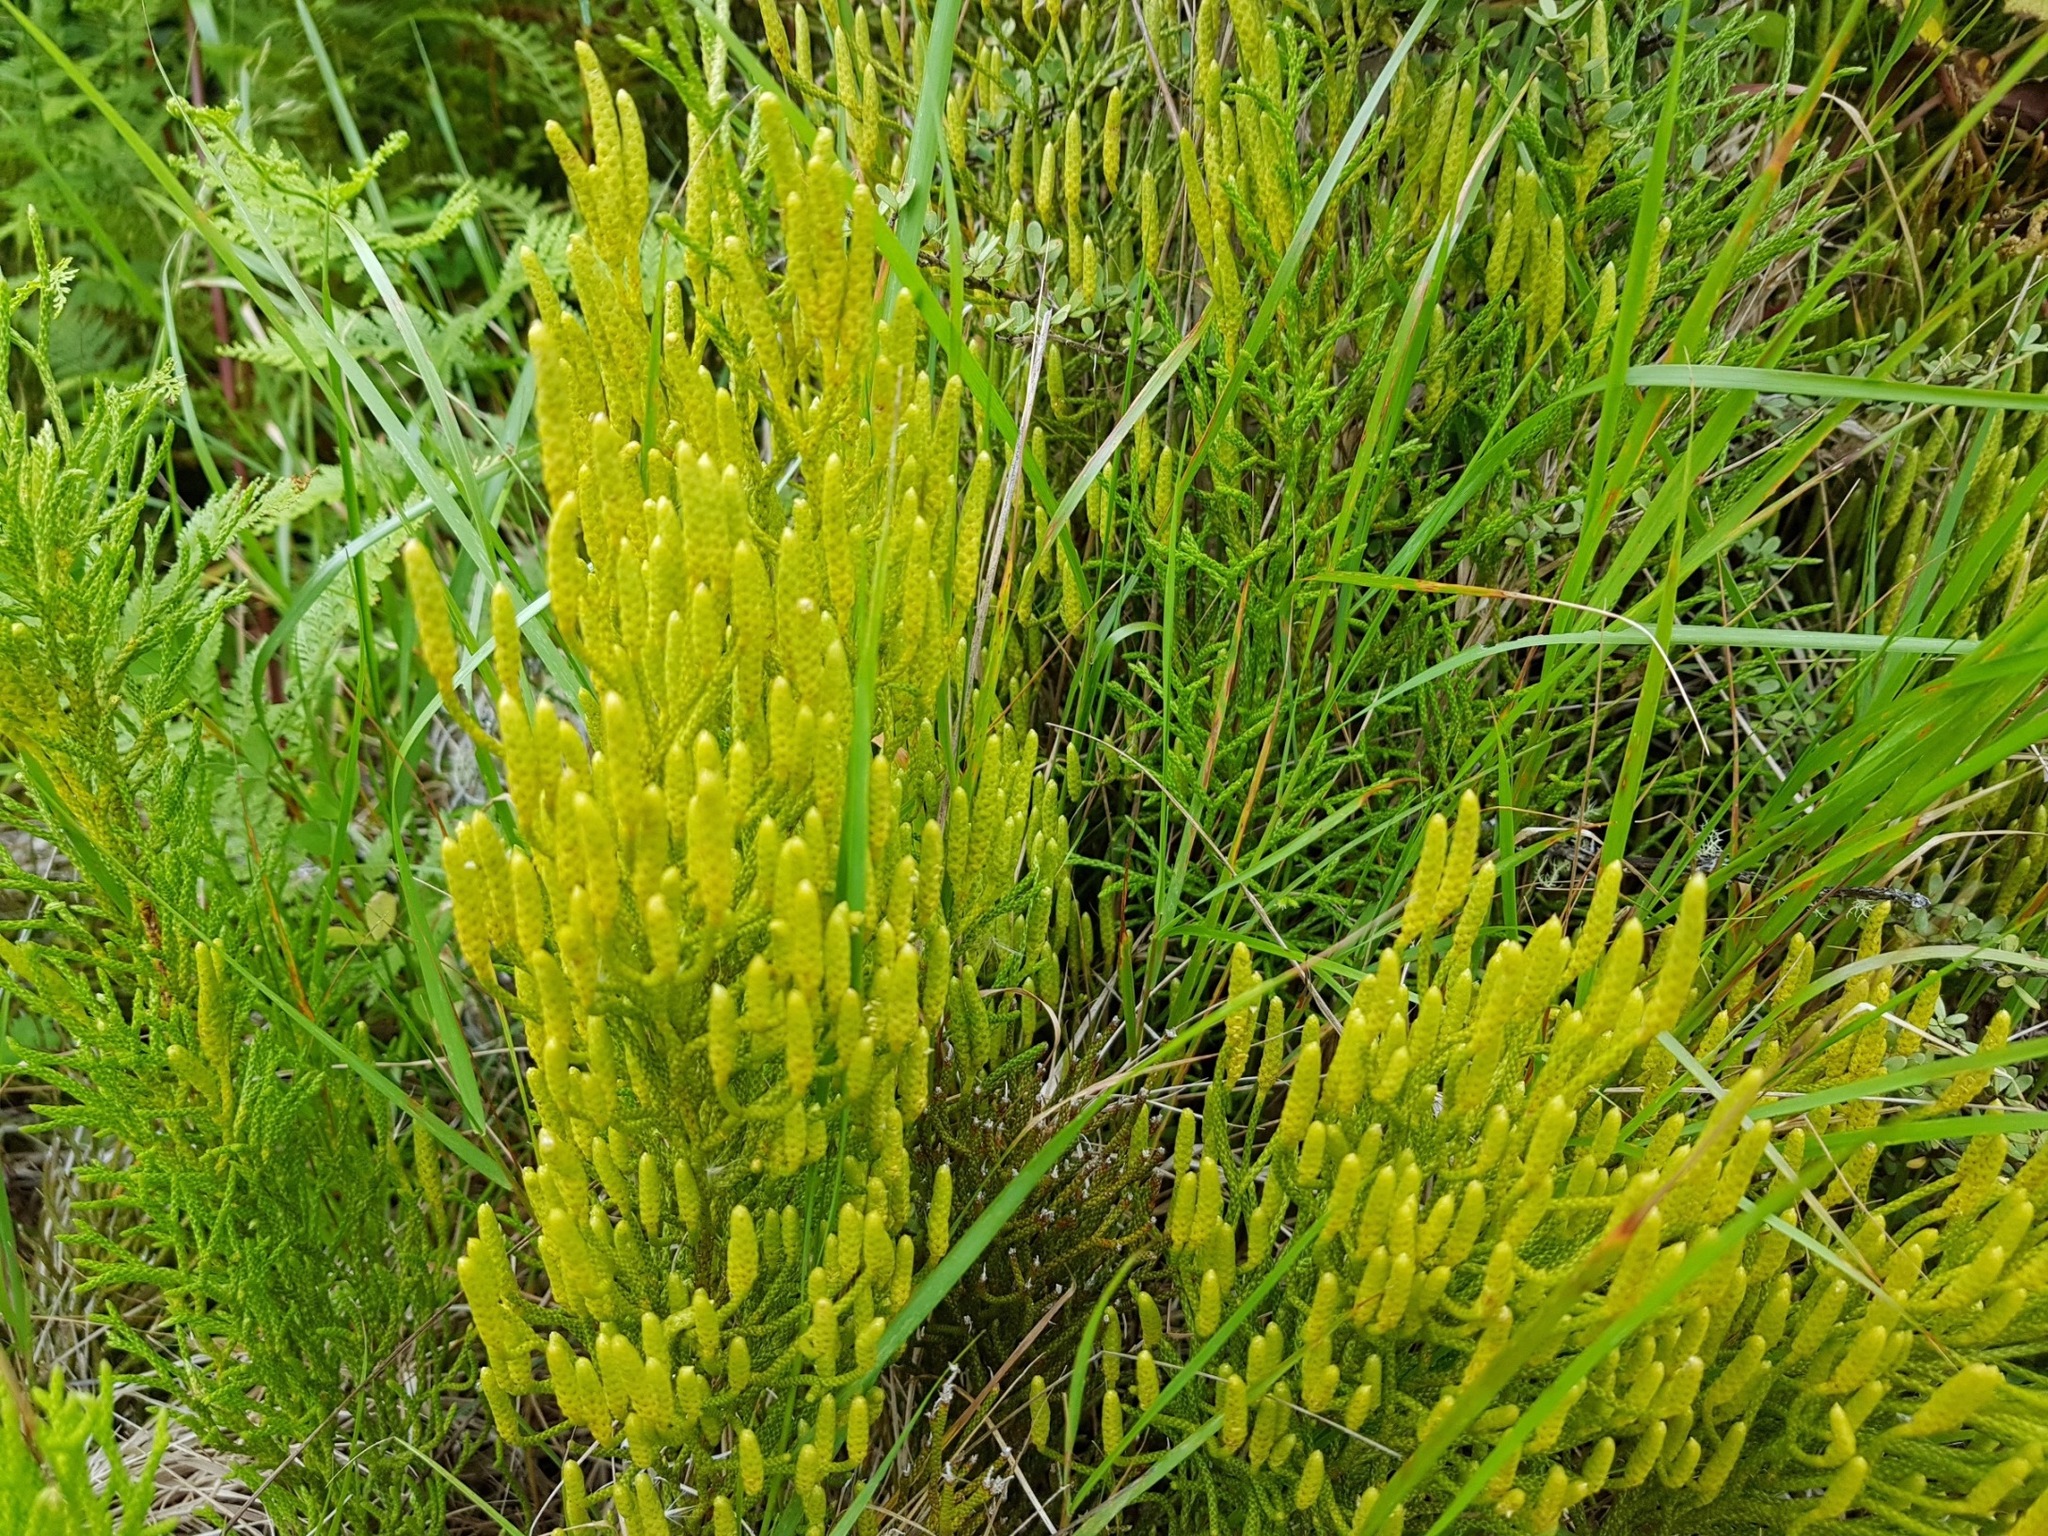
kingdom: Plantae
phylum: Tracheophyta
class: Lycopodiopsida
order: Lycopodiales
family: Lycopodiaceae
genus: Pseudolycopodium
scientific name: Pseudolycopodium densum
